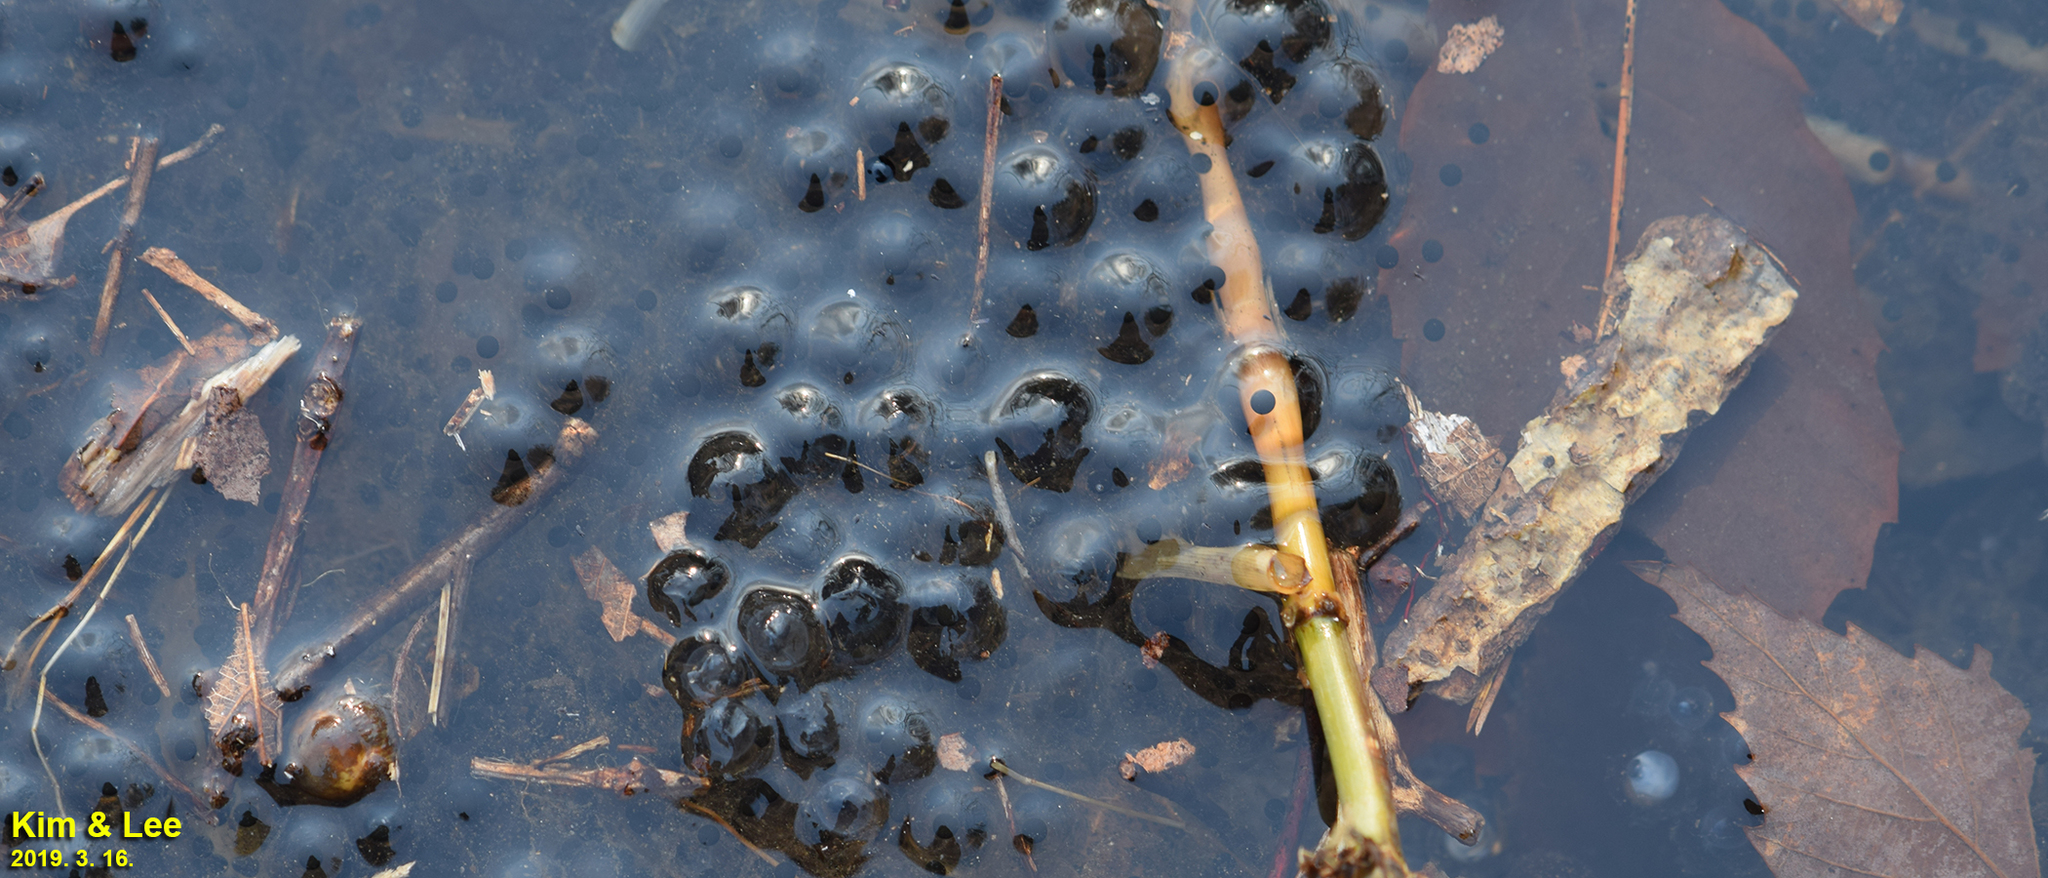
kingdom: Animalia
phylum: Chordata
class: Amphibia
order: Anura
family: Ranidae
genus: Rana
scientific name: Rana huanrenensis
